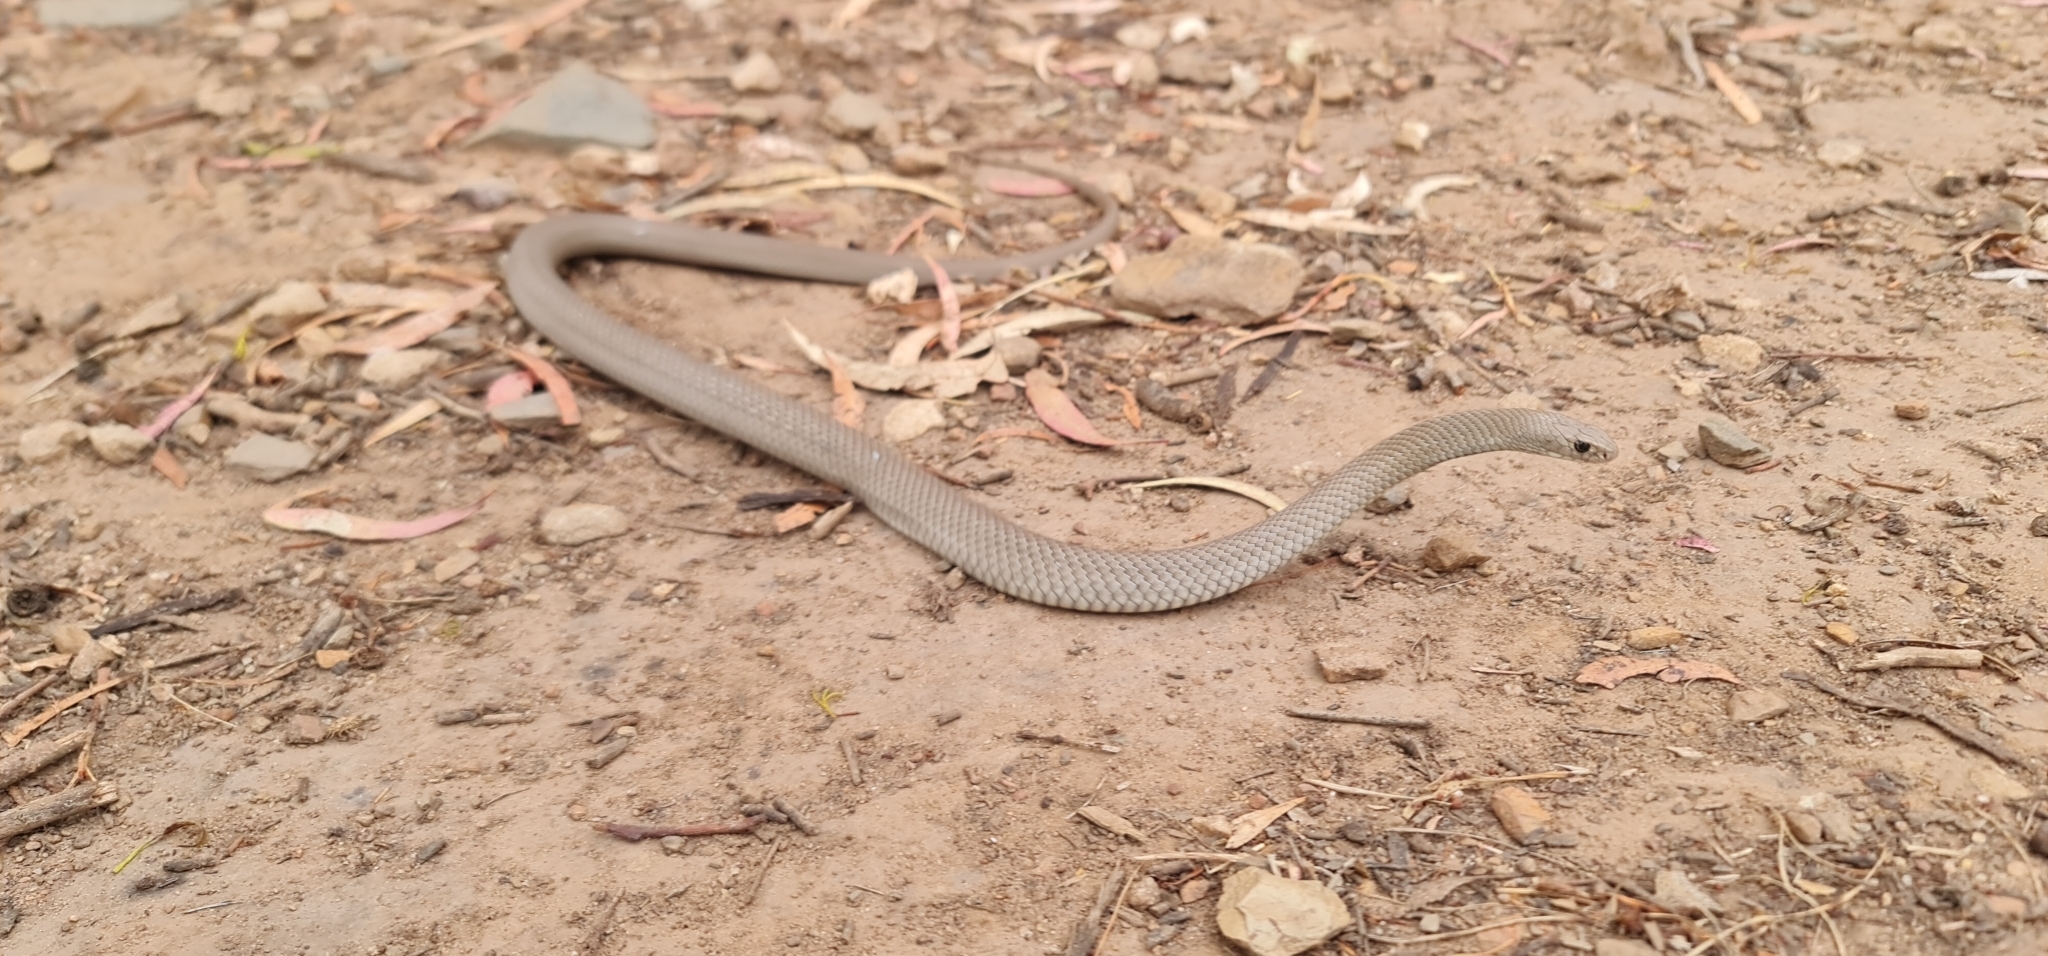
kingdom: Animalia
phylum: Chordata
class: Squamata
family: Elapidae
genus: Pseudonaja
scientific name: Pseudonaja textilis
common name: Eastern brown snake
